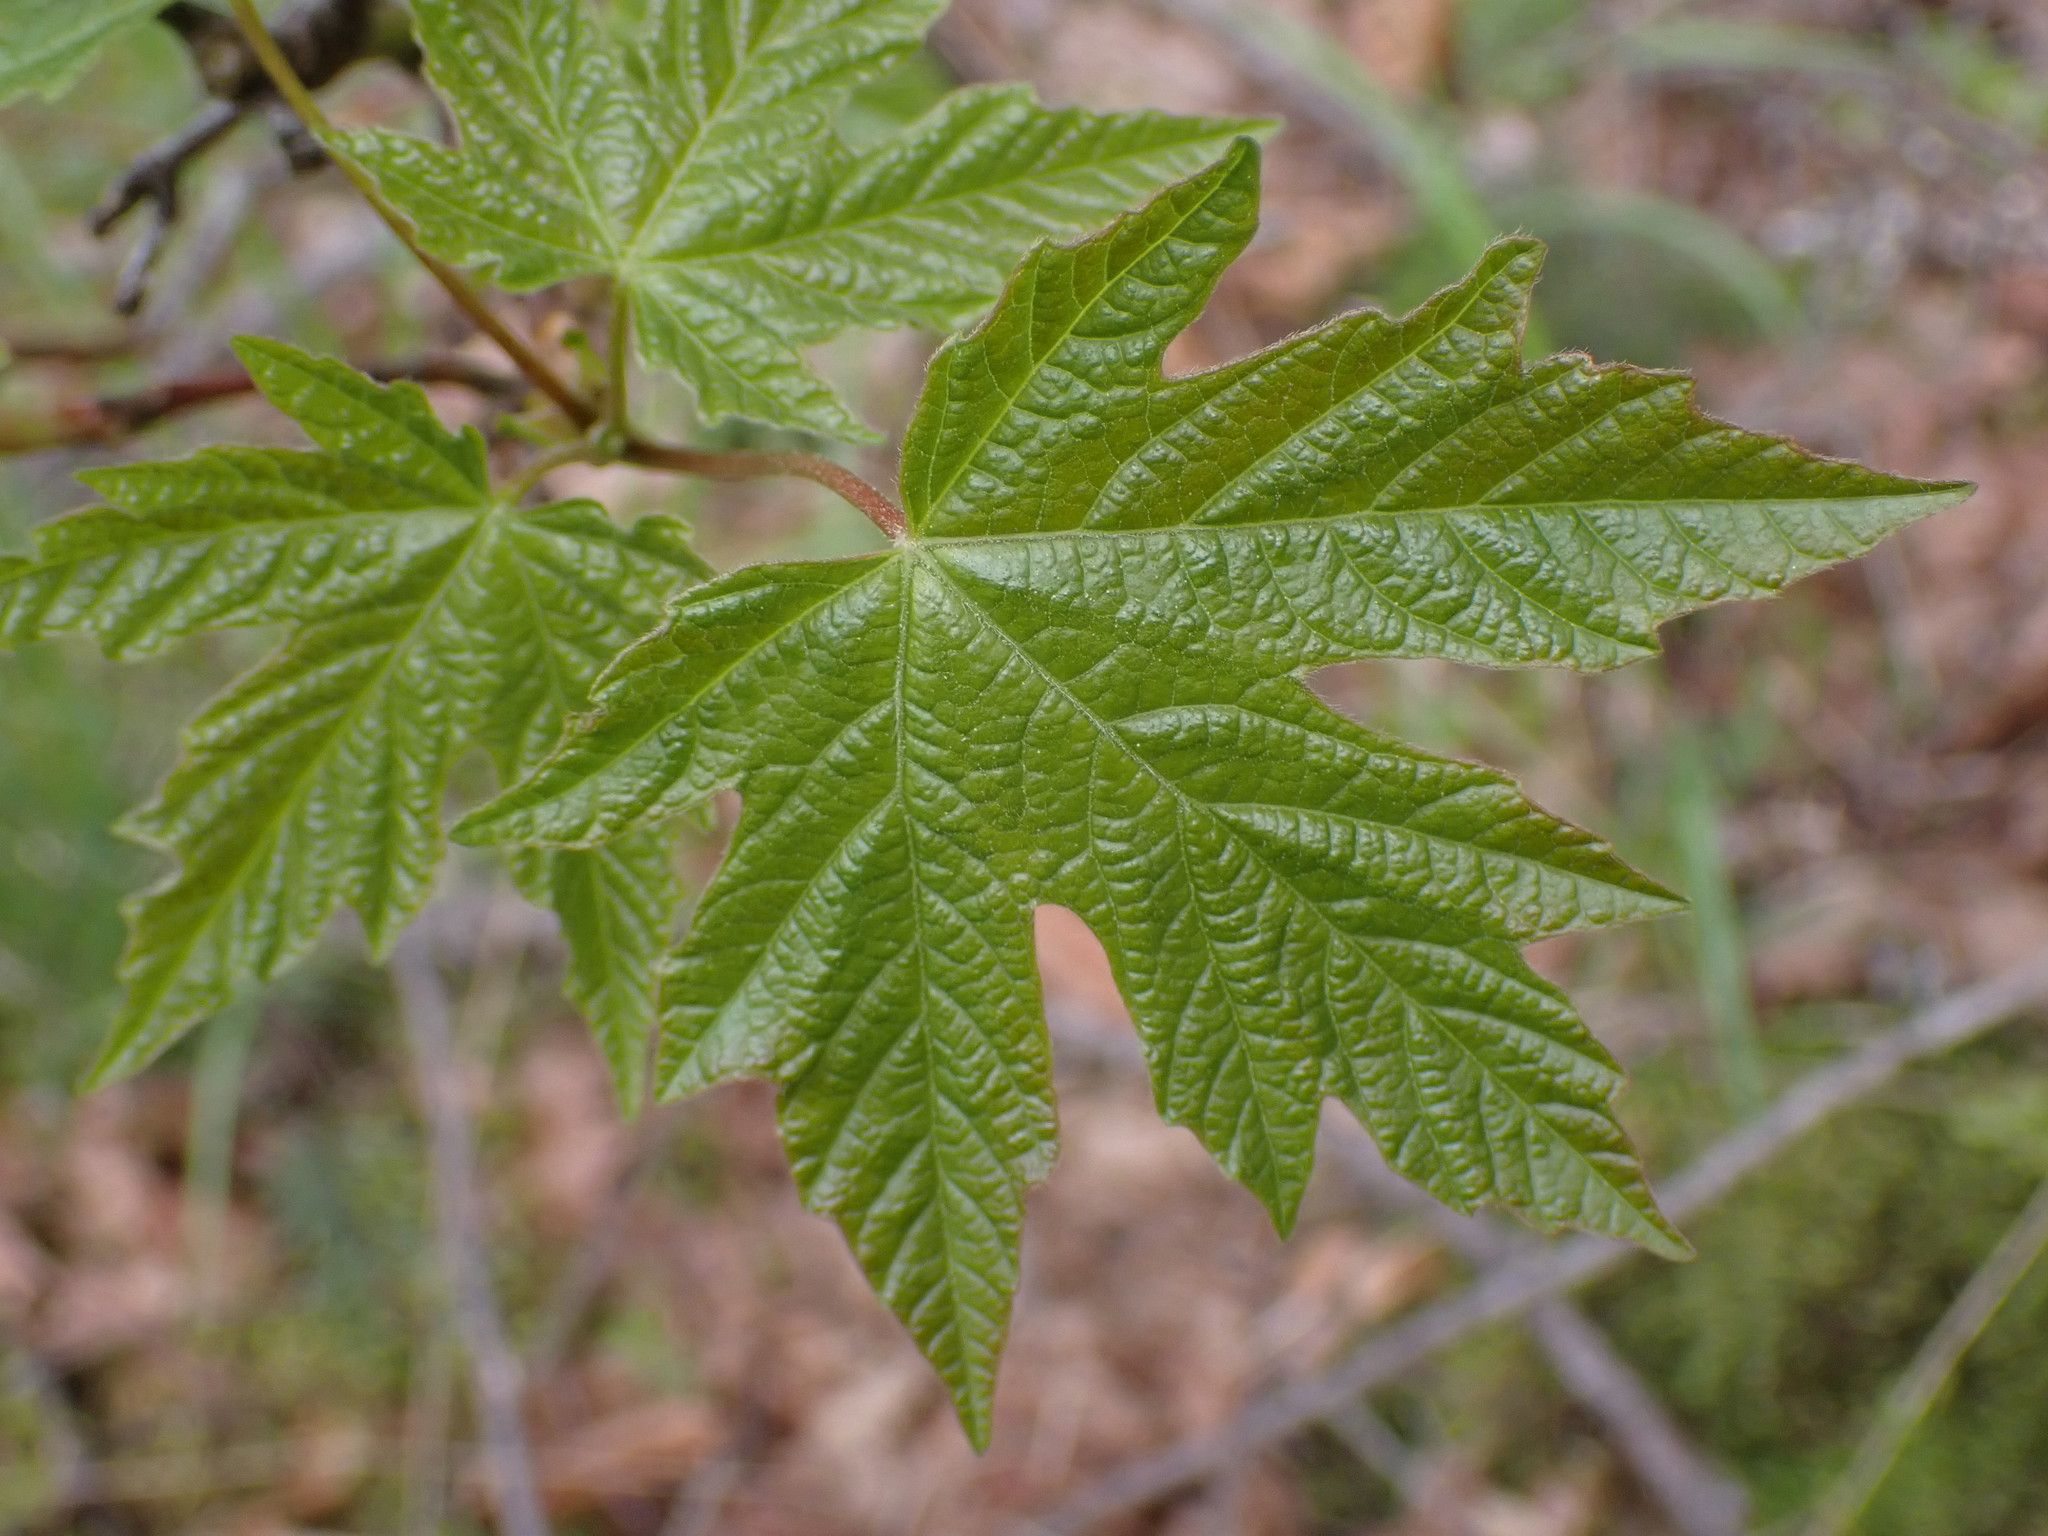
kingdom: Plantae
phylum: Tracheophyta
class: Magnoliopsida
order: Sapindales
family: Sapindaceae
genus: Acer
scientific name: Acer glabrum
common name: Rocky mountain maple
